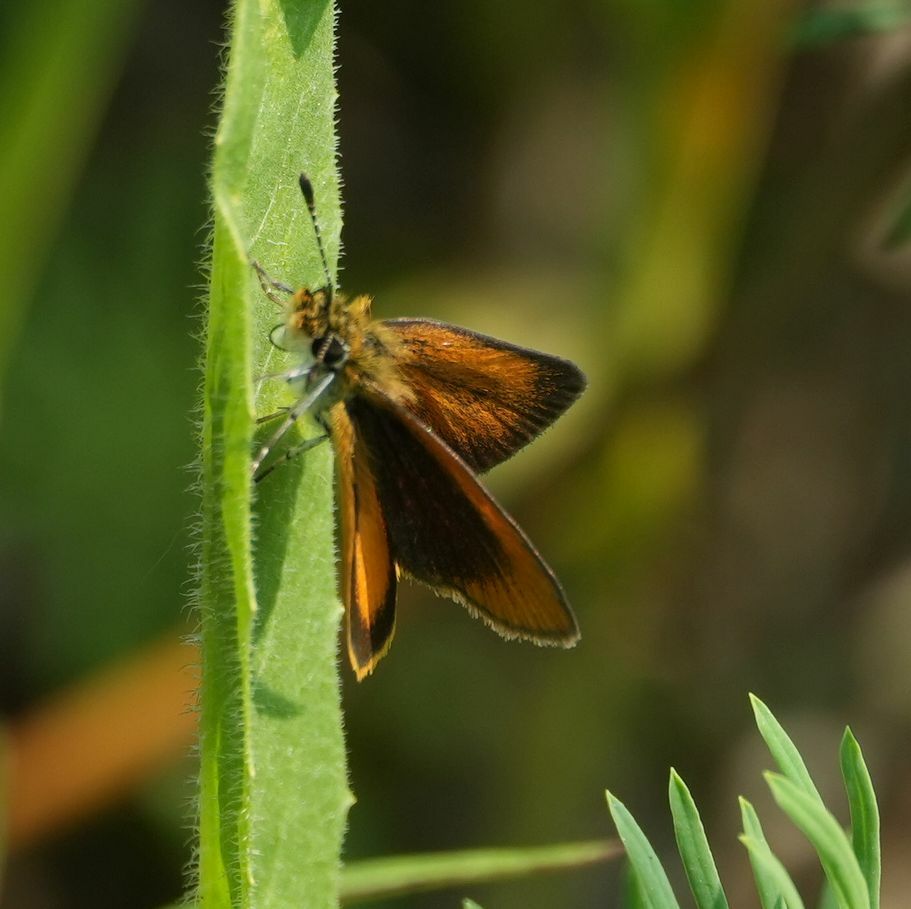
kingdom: Animalia
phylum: Arthropoda
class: Insecta
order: Lepidoptera
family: Hesperiidae
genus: Ancyloxypha
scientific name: Ancyloxypha numitor
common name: Least skipper
